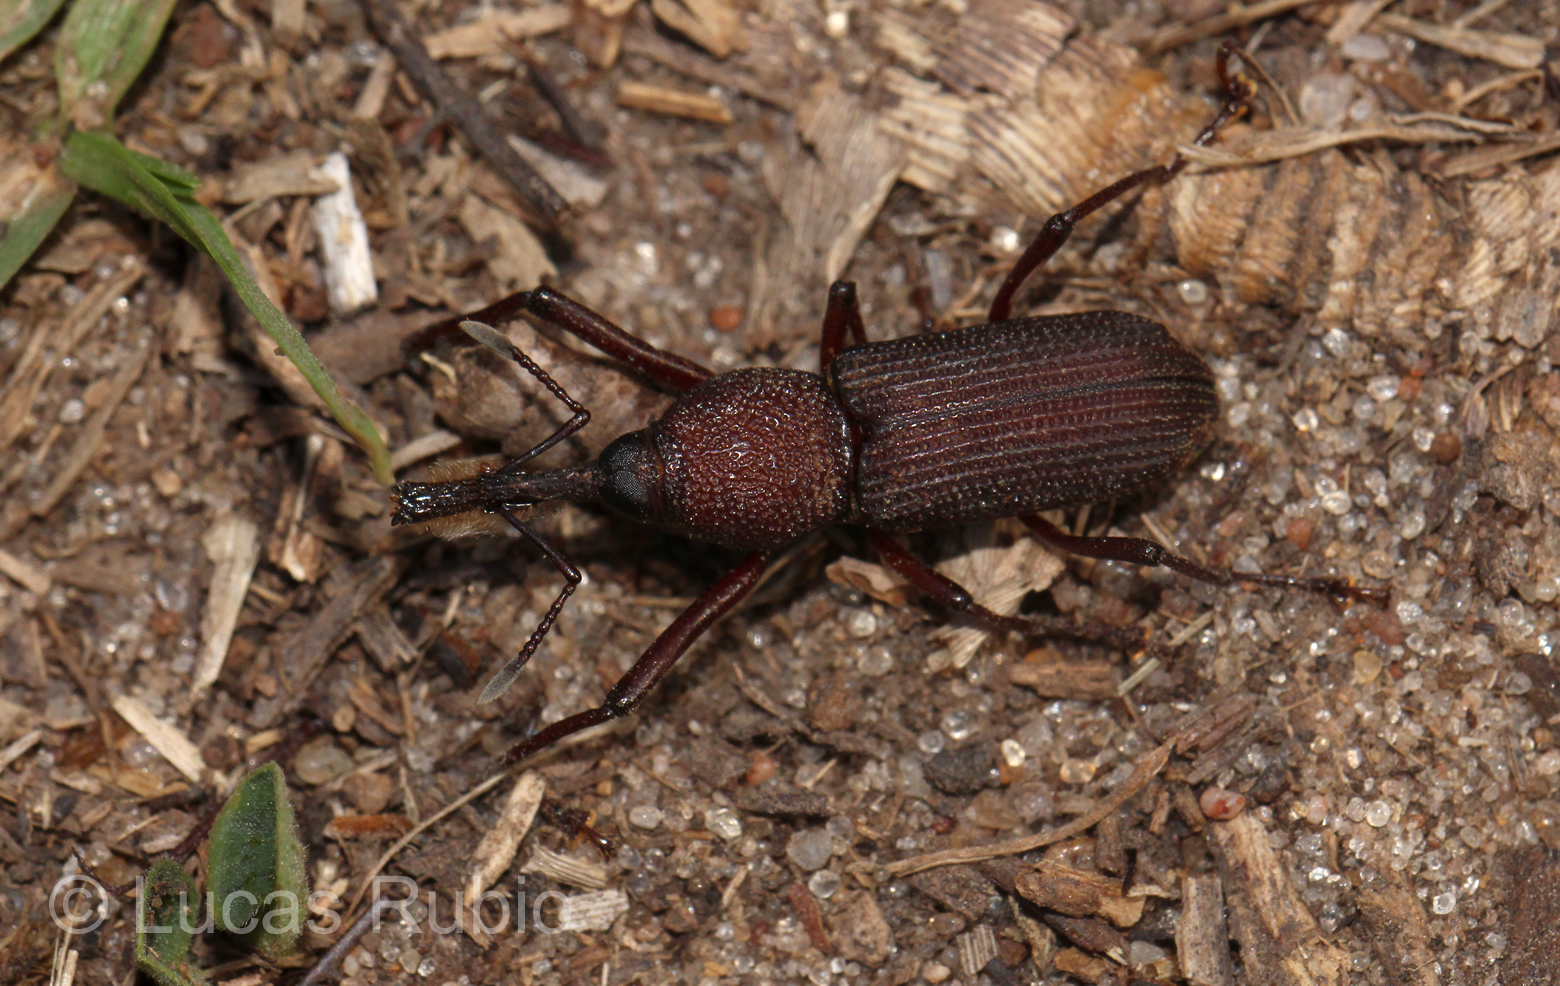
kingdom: Animalia
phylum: Arthropoda
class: Insecta
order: Coleoptera
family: Dryophthoridae
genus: Rhinostomus
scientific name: Rhinostomus barbirostris
